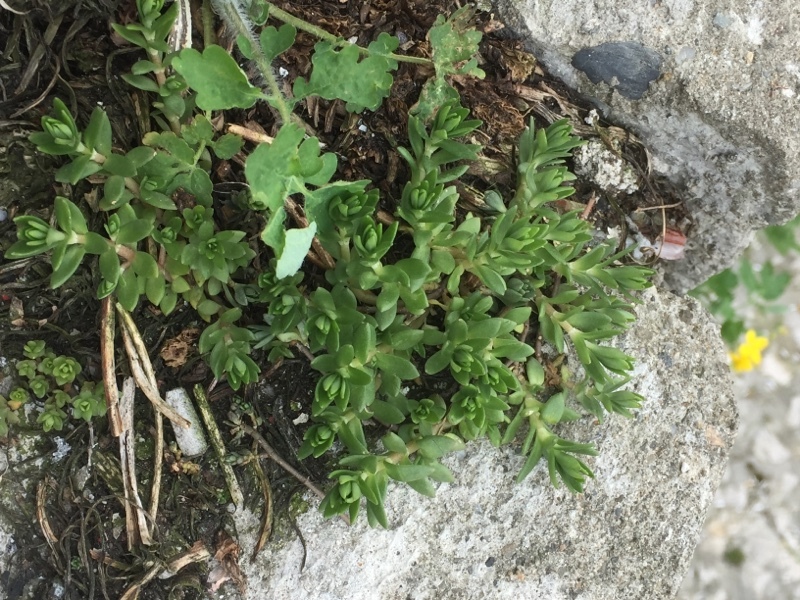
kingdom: Plantae
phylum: Tracheophyta
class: Magnoliopsida
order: Saxifragales
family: Crassulaceae
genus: Sedum
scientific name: Sedum sarmentosum
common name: Stringy stonecrop
